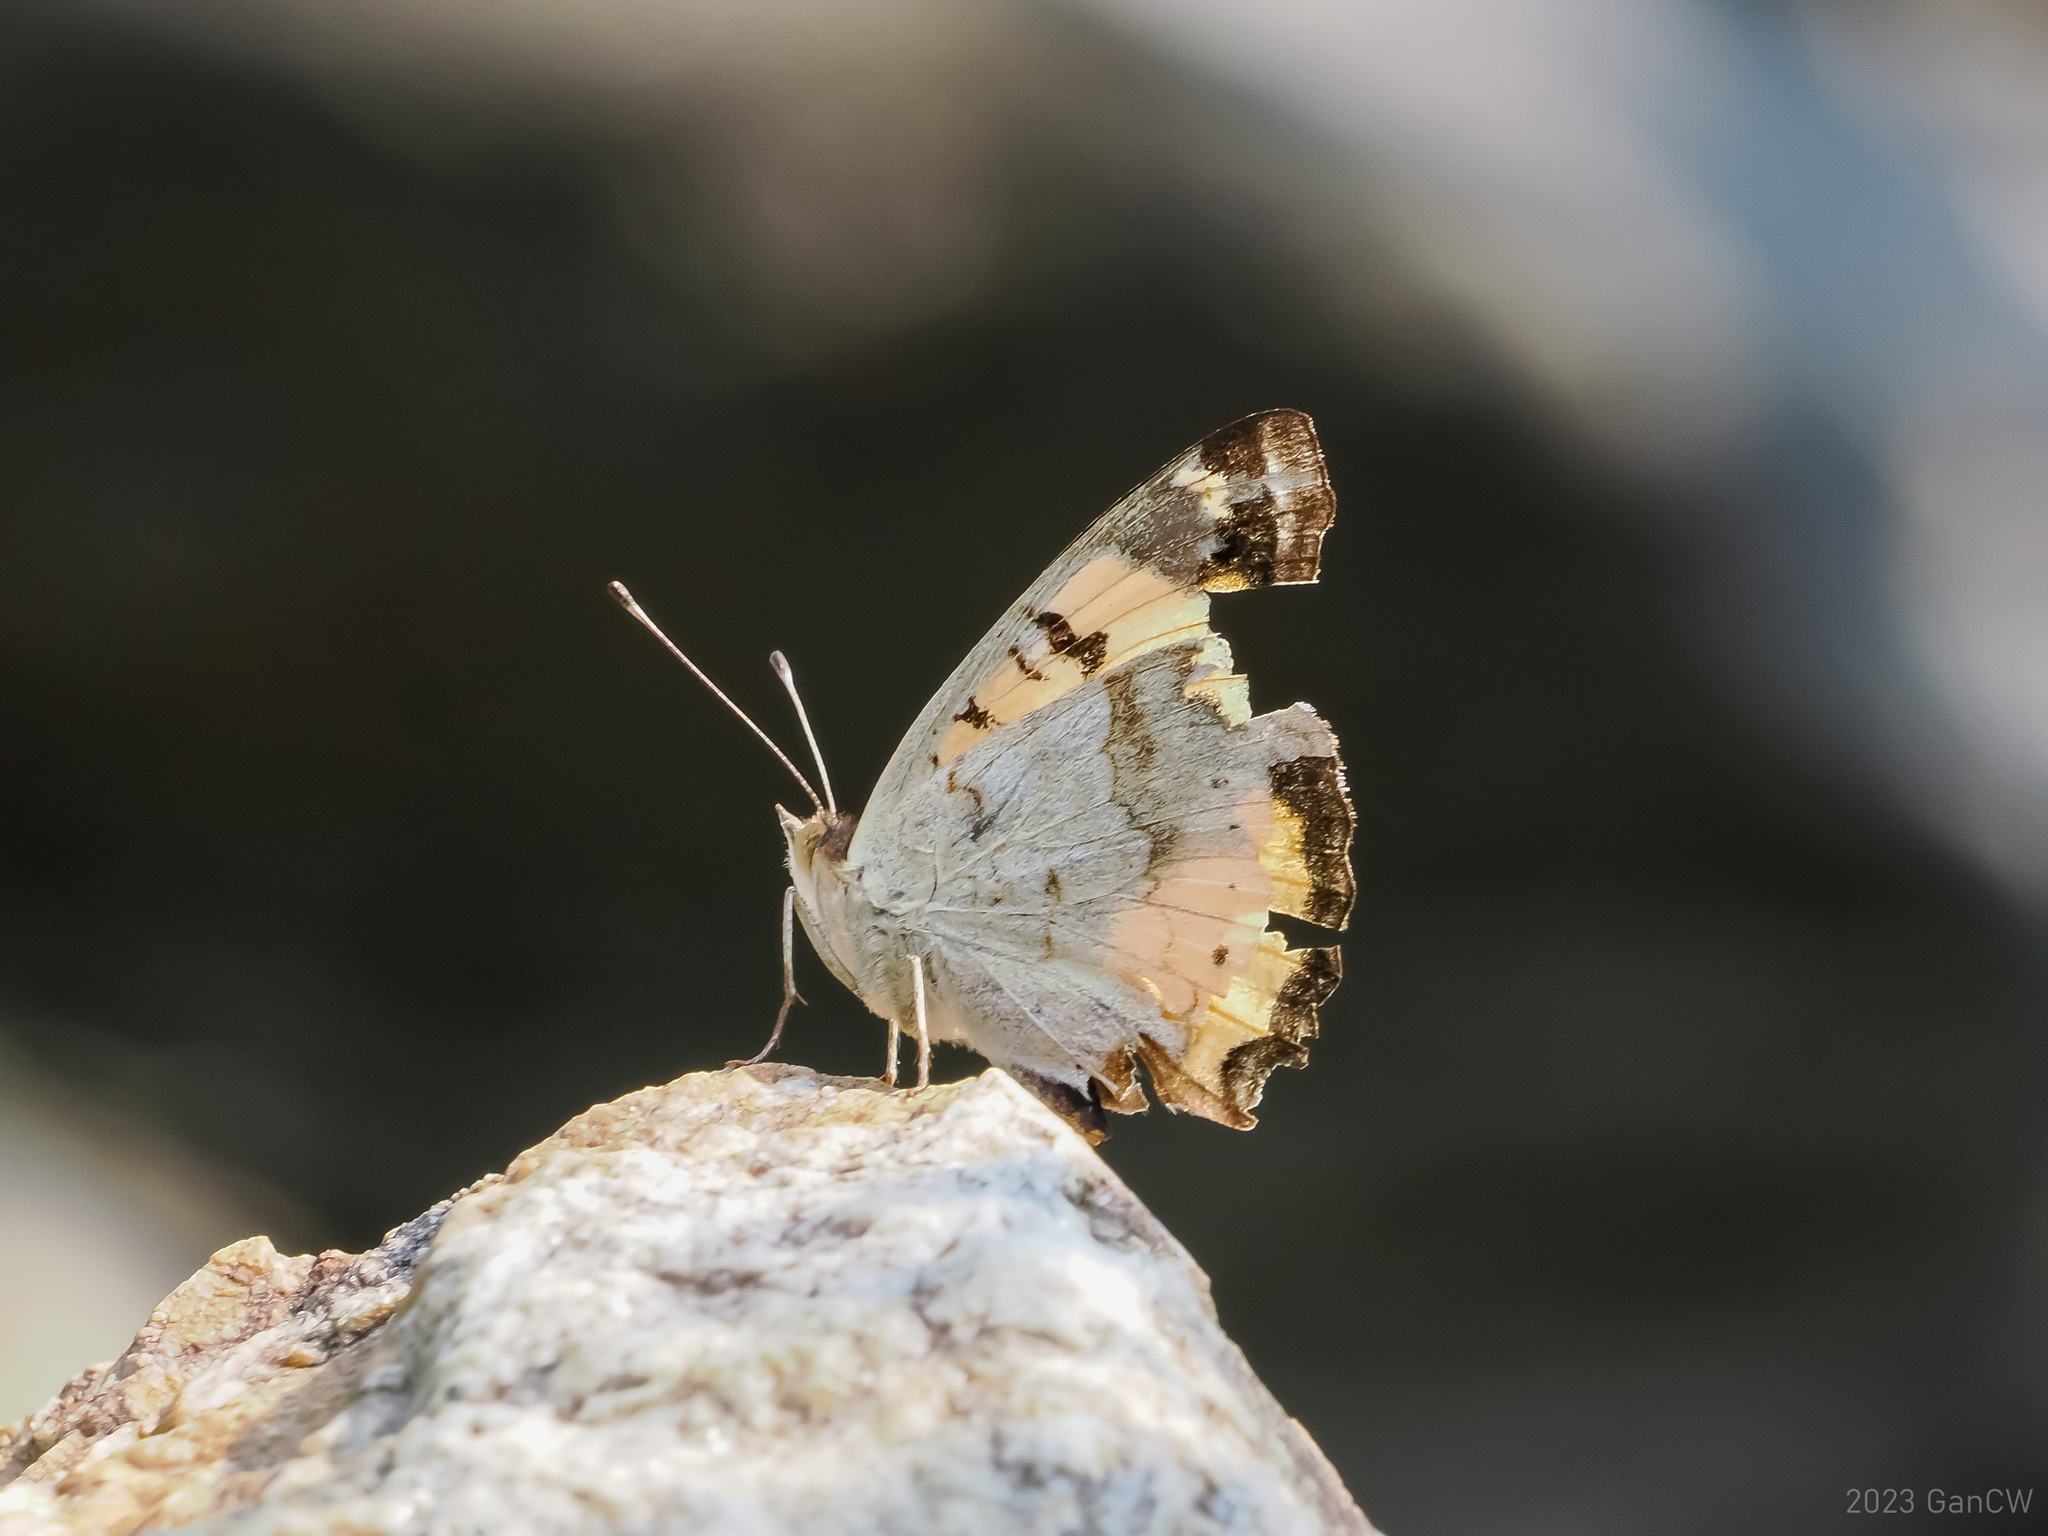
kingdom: Animalia
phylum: Arthropoda
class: Insecta
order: Lepidoptera
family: Nymphalidae
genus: Junonia
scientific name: Junonia hierta
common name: Yellow pansy
